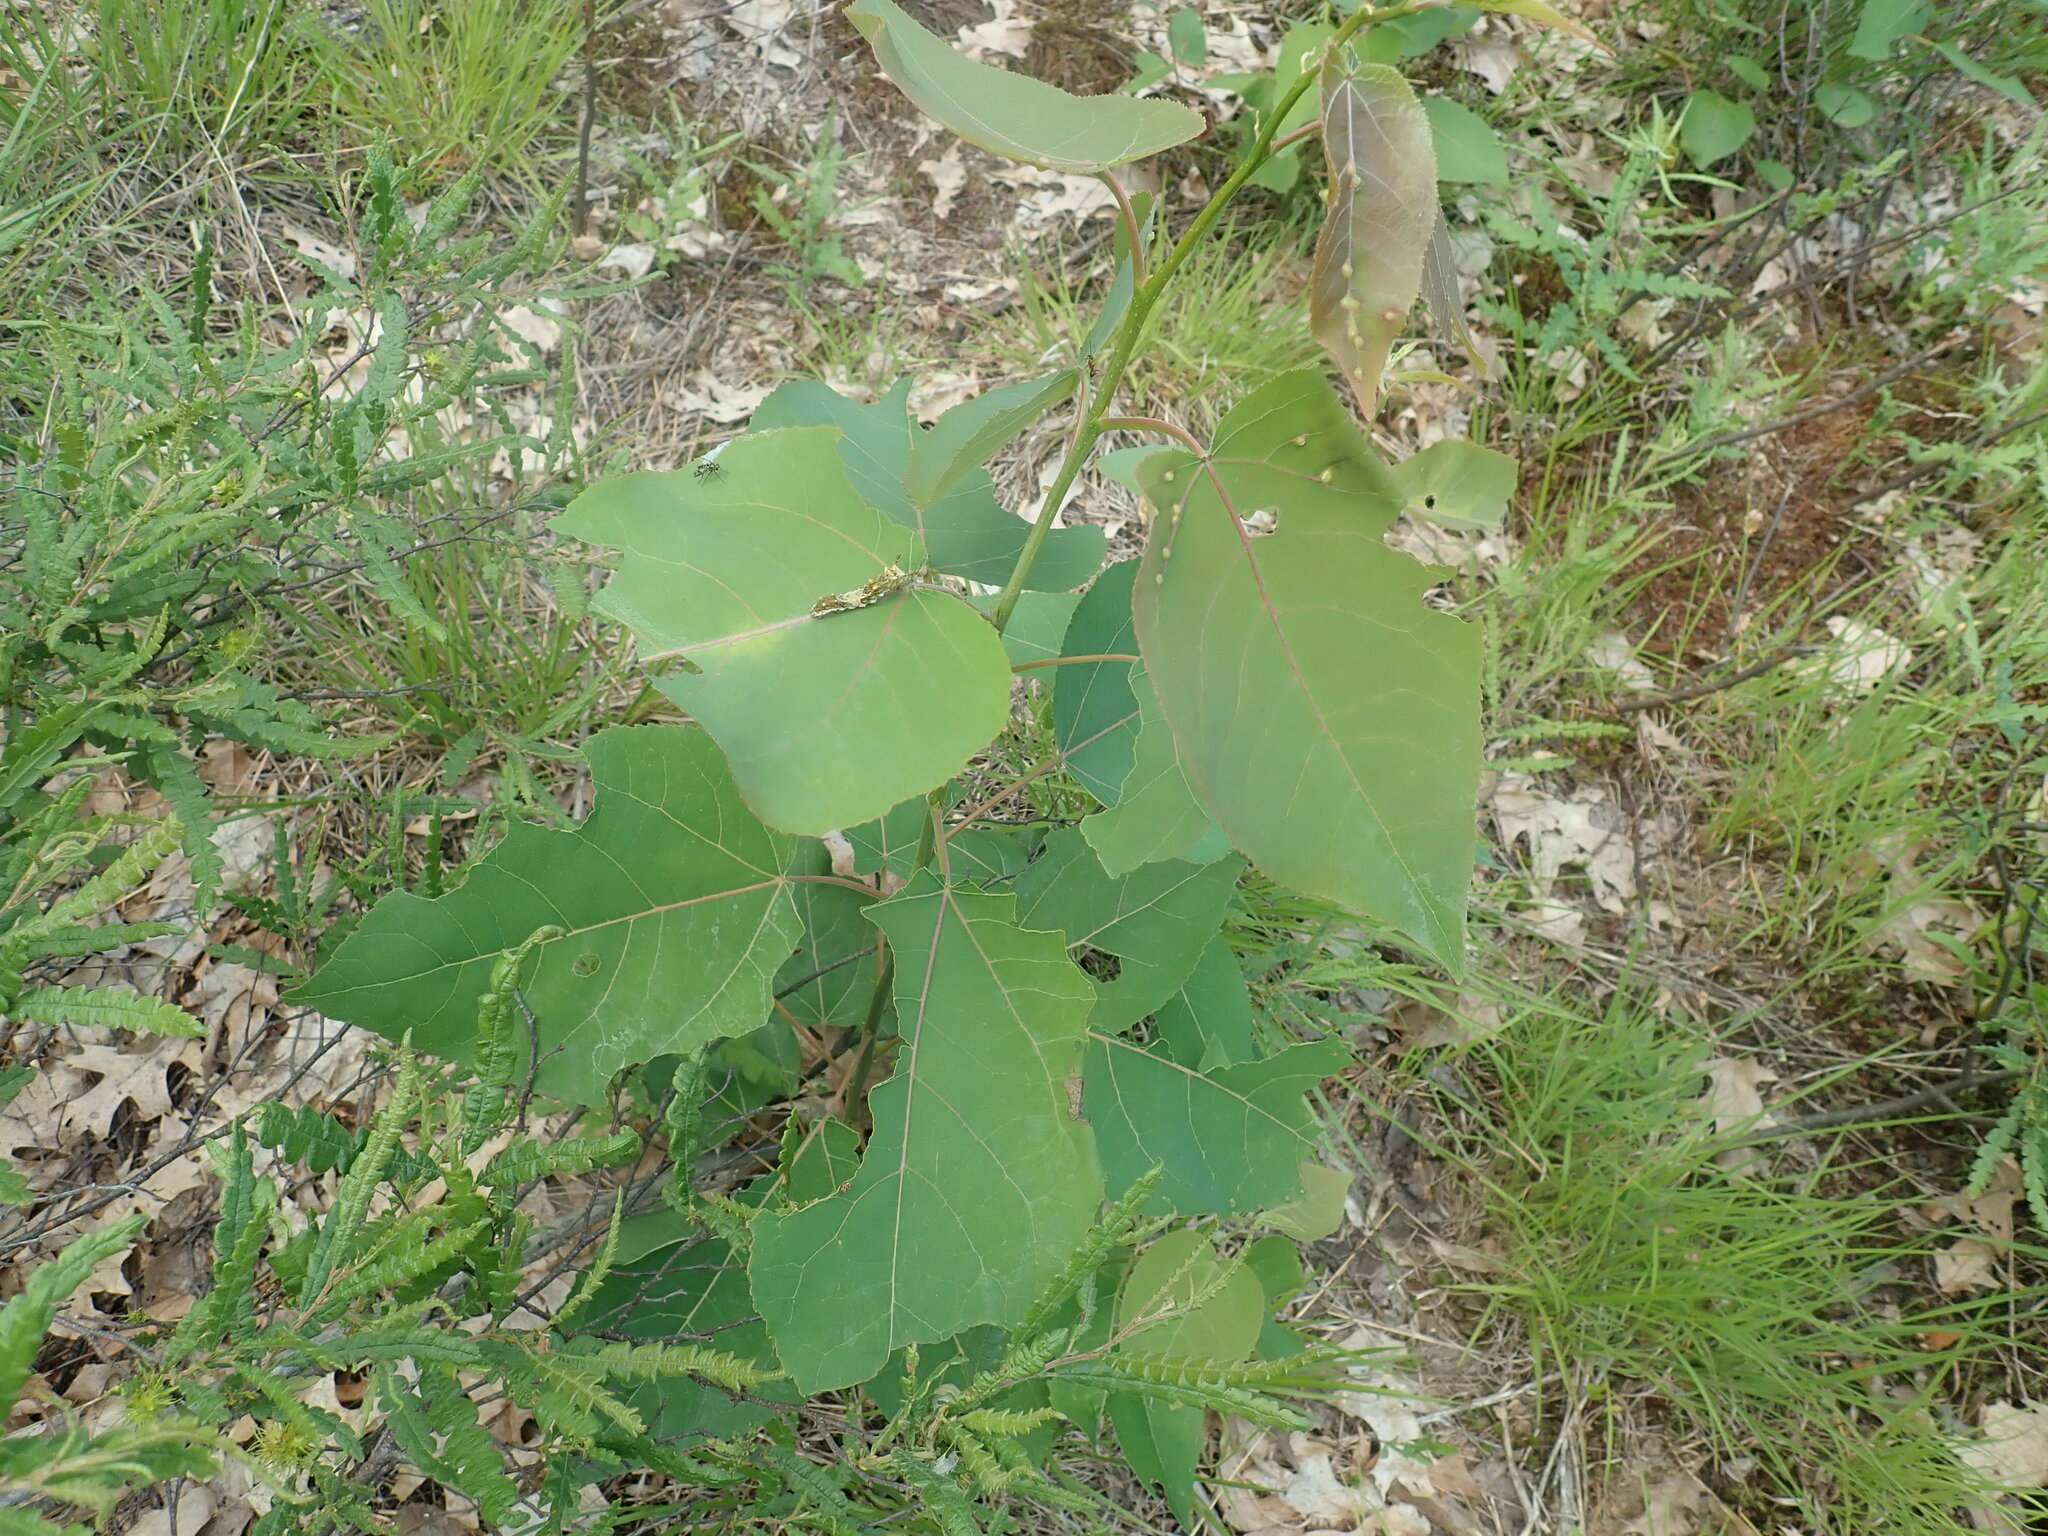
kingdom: Plantae
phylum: Tracheophyta
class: Magnoliopsida
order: Malpighiales
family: Salicaceae
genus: Populus
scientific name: Populus deltoides
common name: Eastern cottonwood
